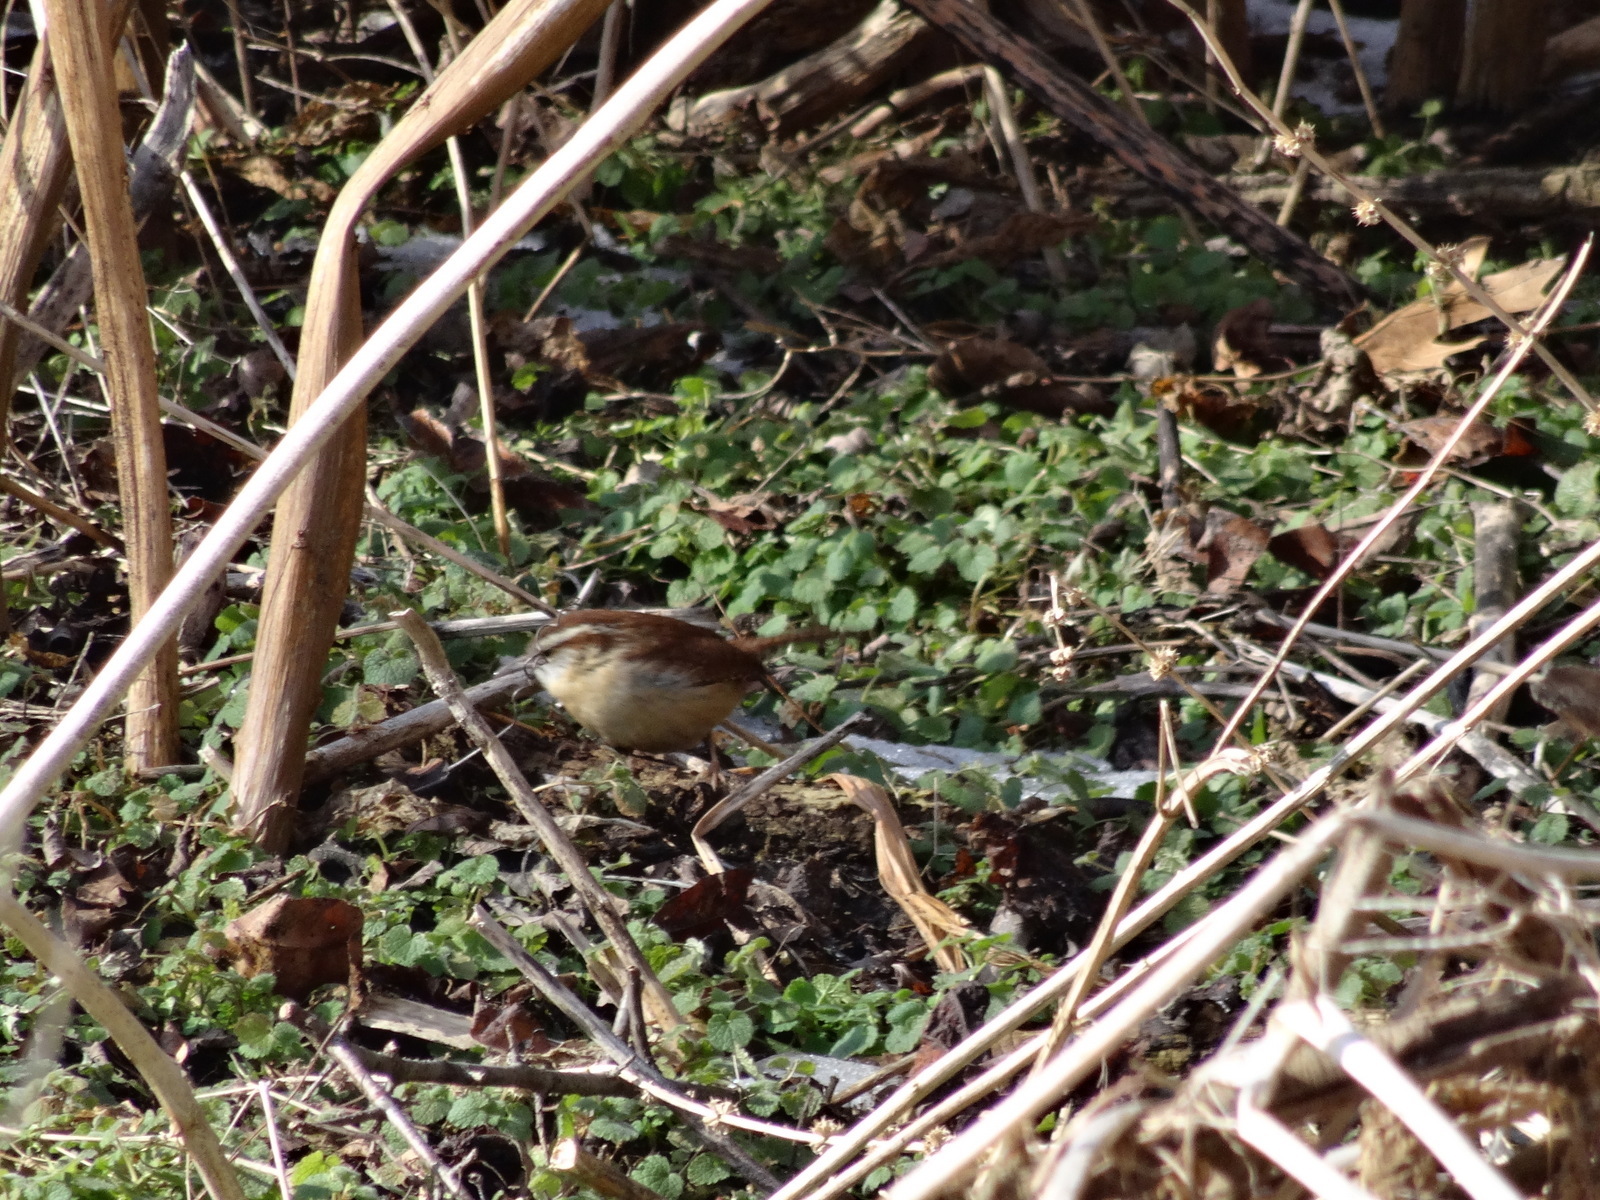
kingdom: Animalia
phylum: Chordata
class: Aves
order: Passeriformes
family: Troglodytidae
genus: Thryothorus
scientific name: Thryothorus ludovicianus
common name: Carolina wren
